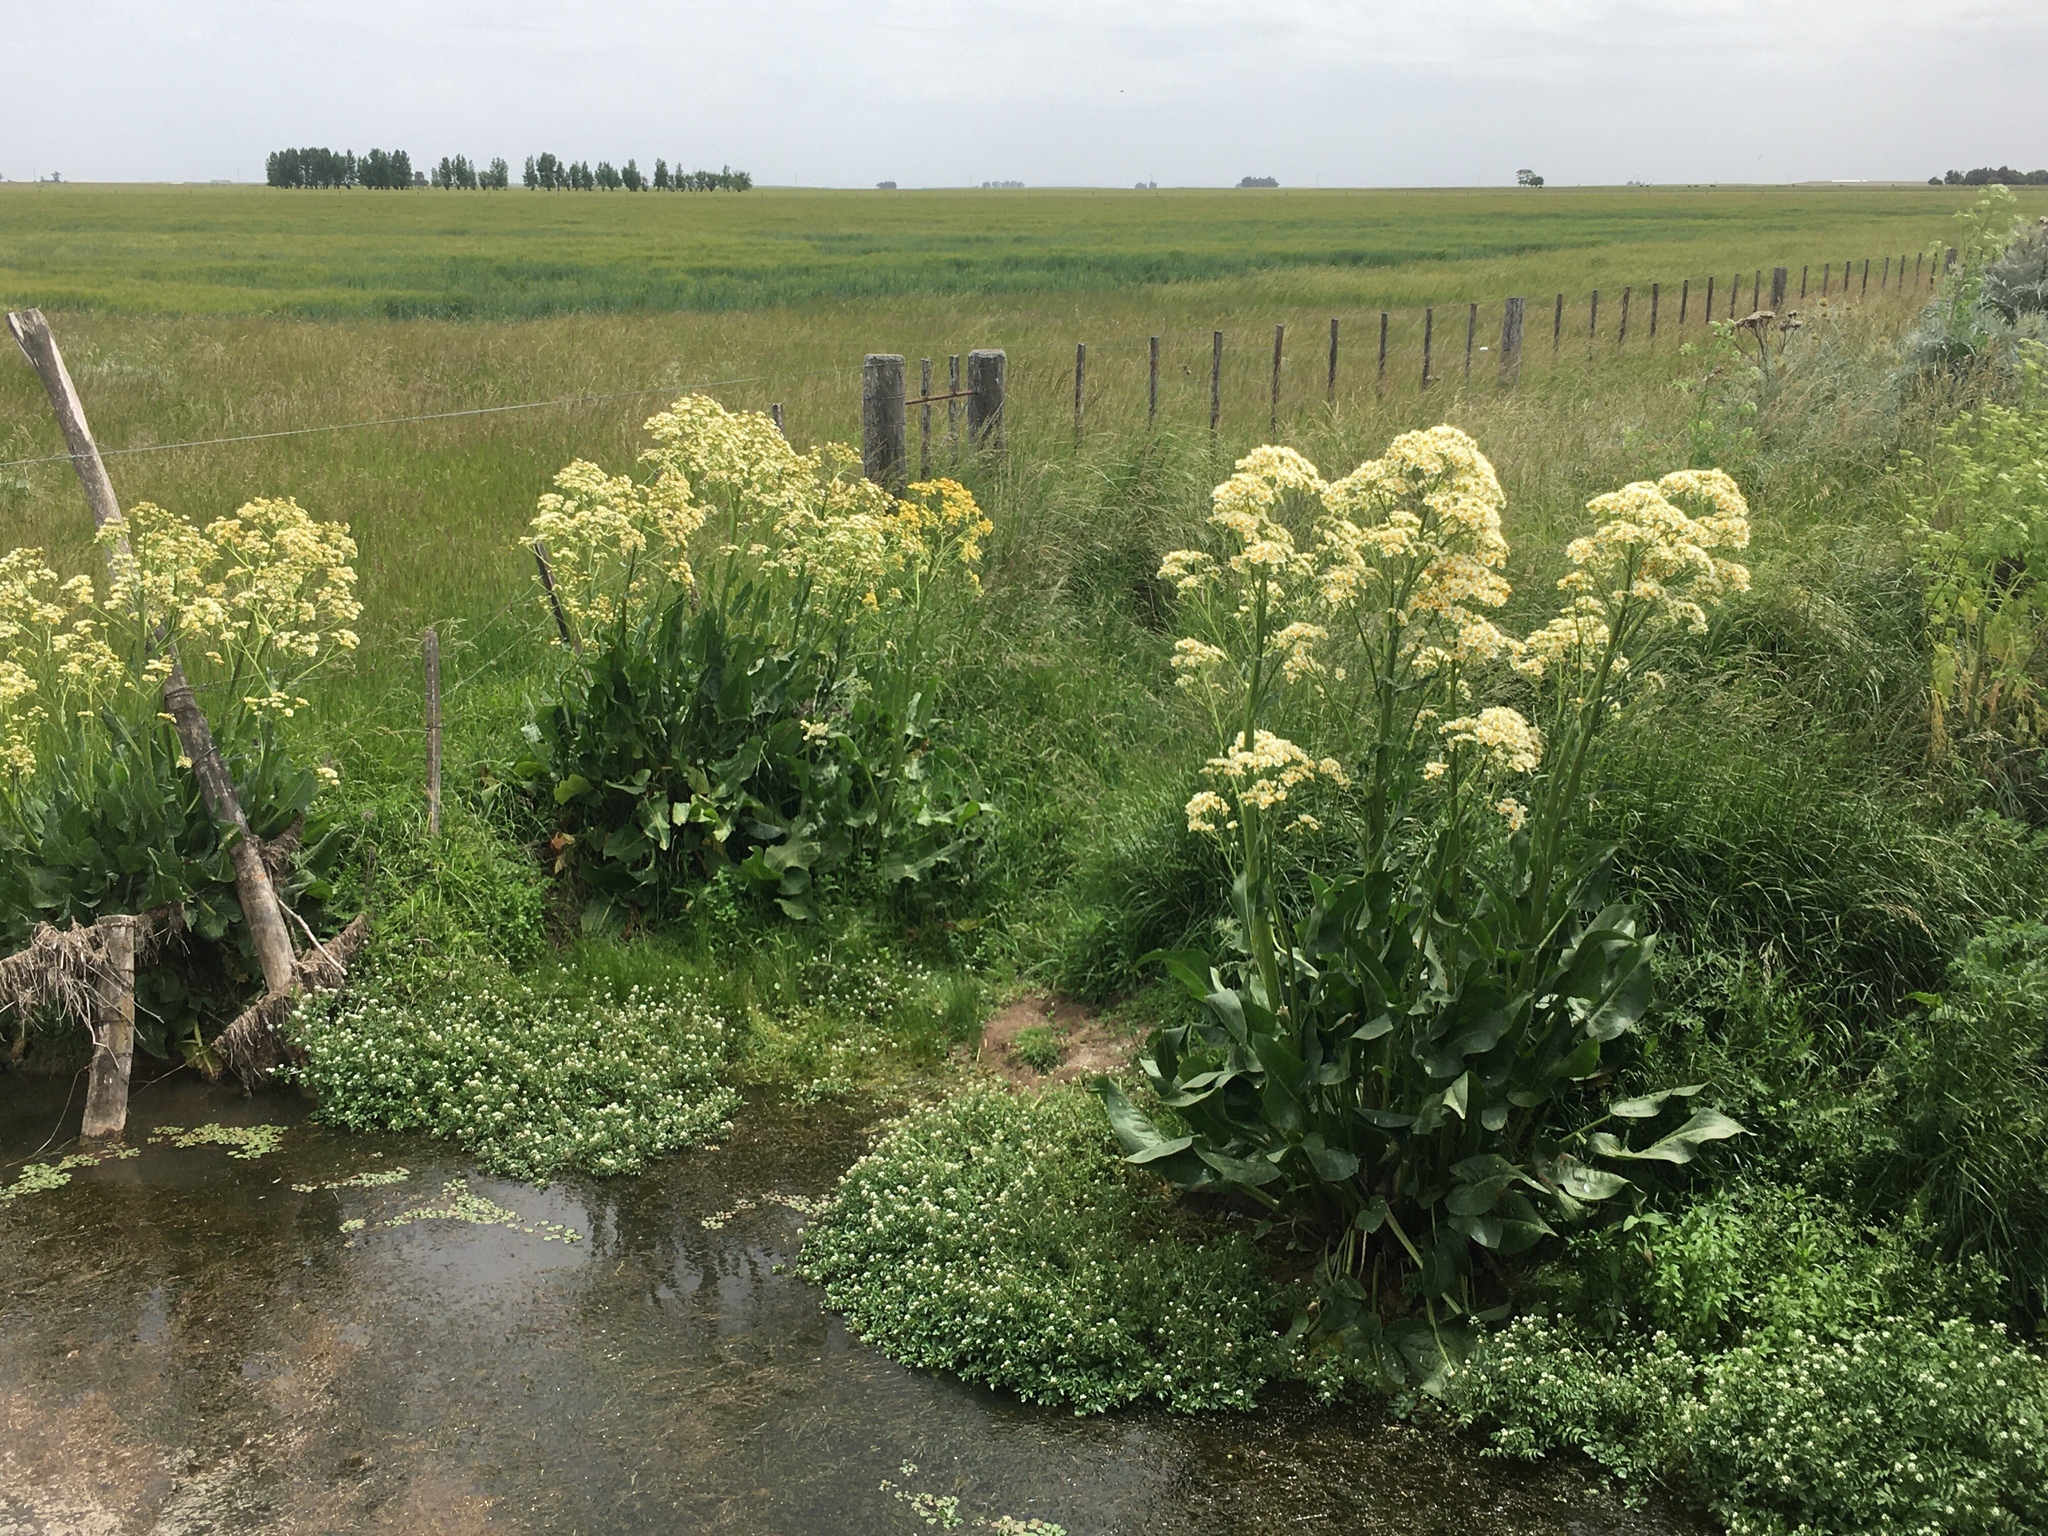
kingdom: Plantae
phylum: Tracheophyta
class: Magnoliopsida
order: Asterales
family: Asteraceae
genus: Senecio
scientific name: Senecio bonariensis
